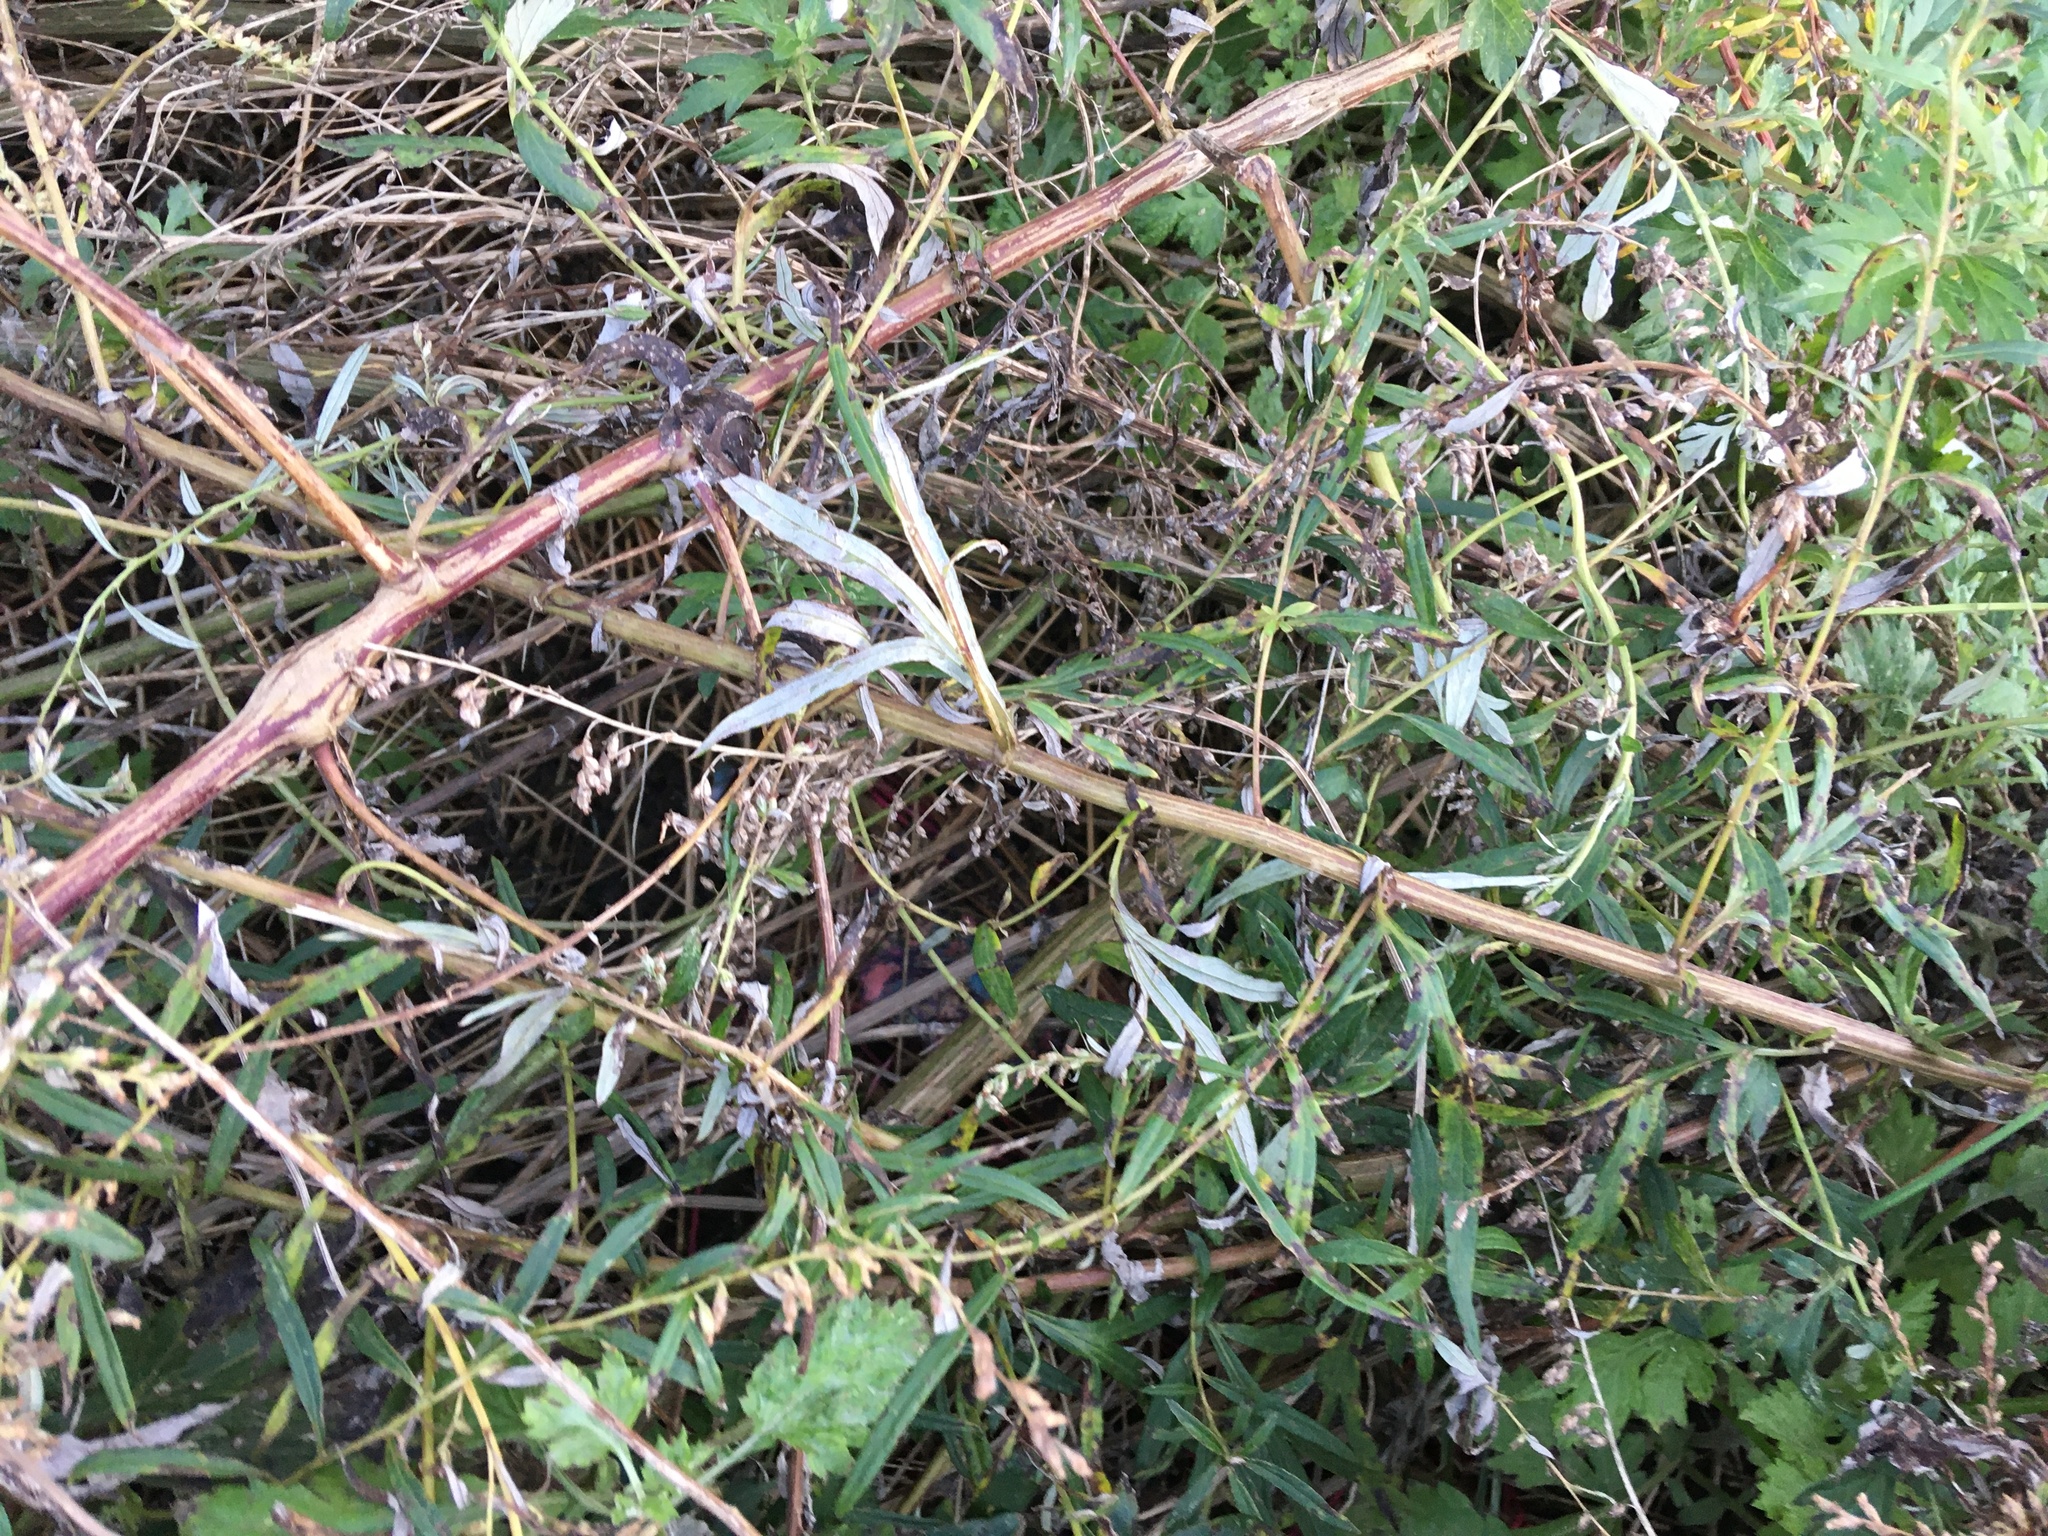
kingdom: Plantae
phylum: Tracheophyta
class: Magnoliopsida
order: Asterales
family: Asteraceae
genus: Artemisia
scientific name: Artemisia vulgaris
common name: Mugwort
